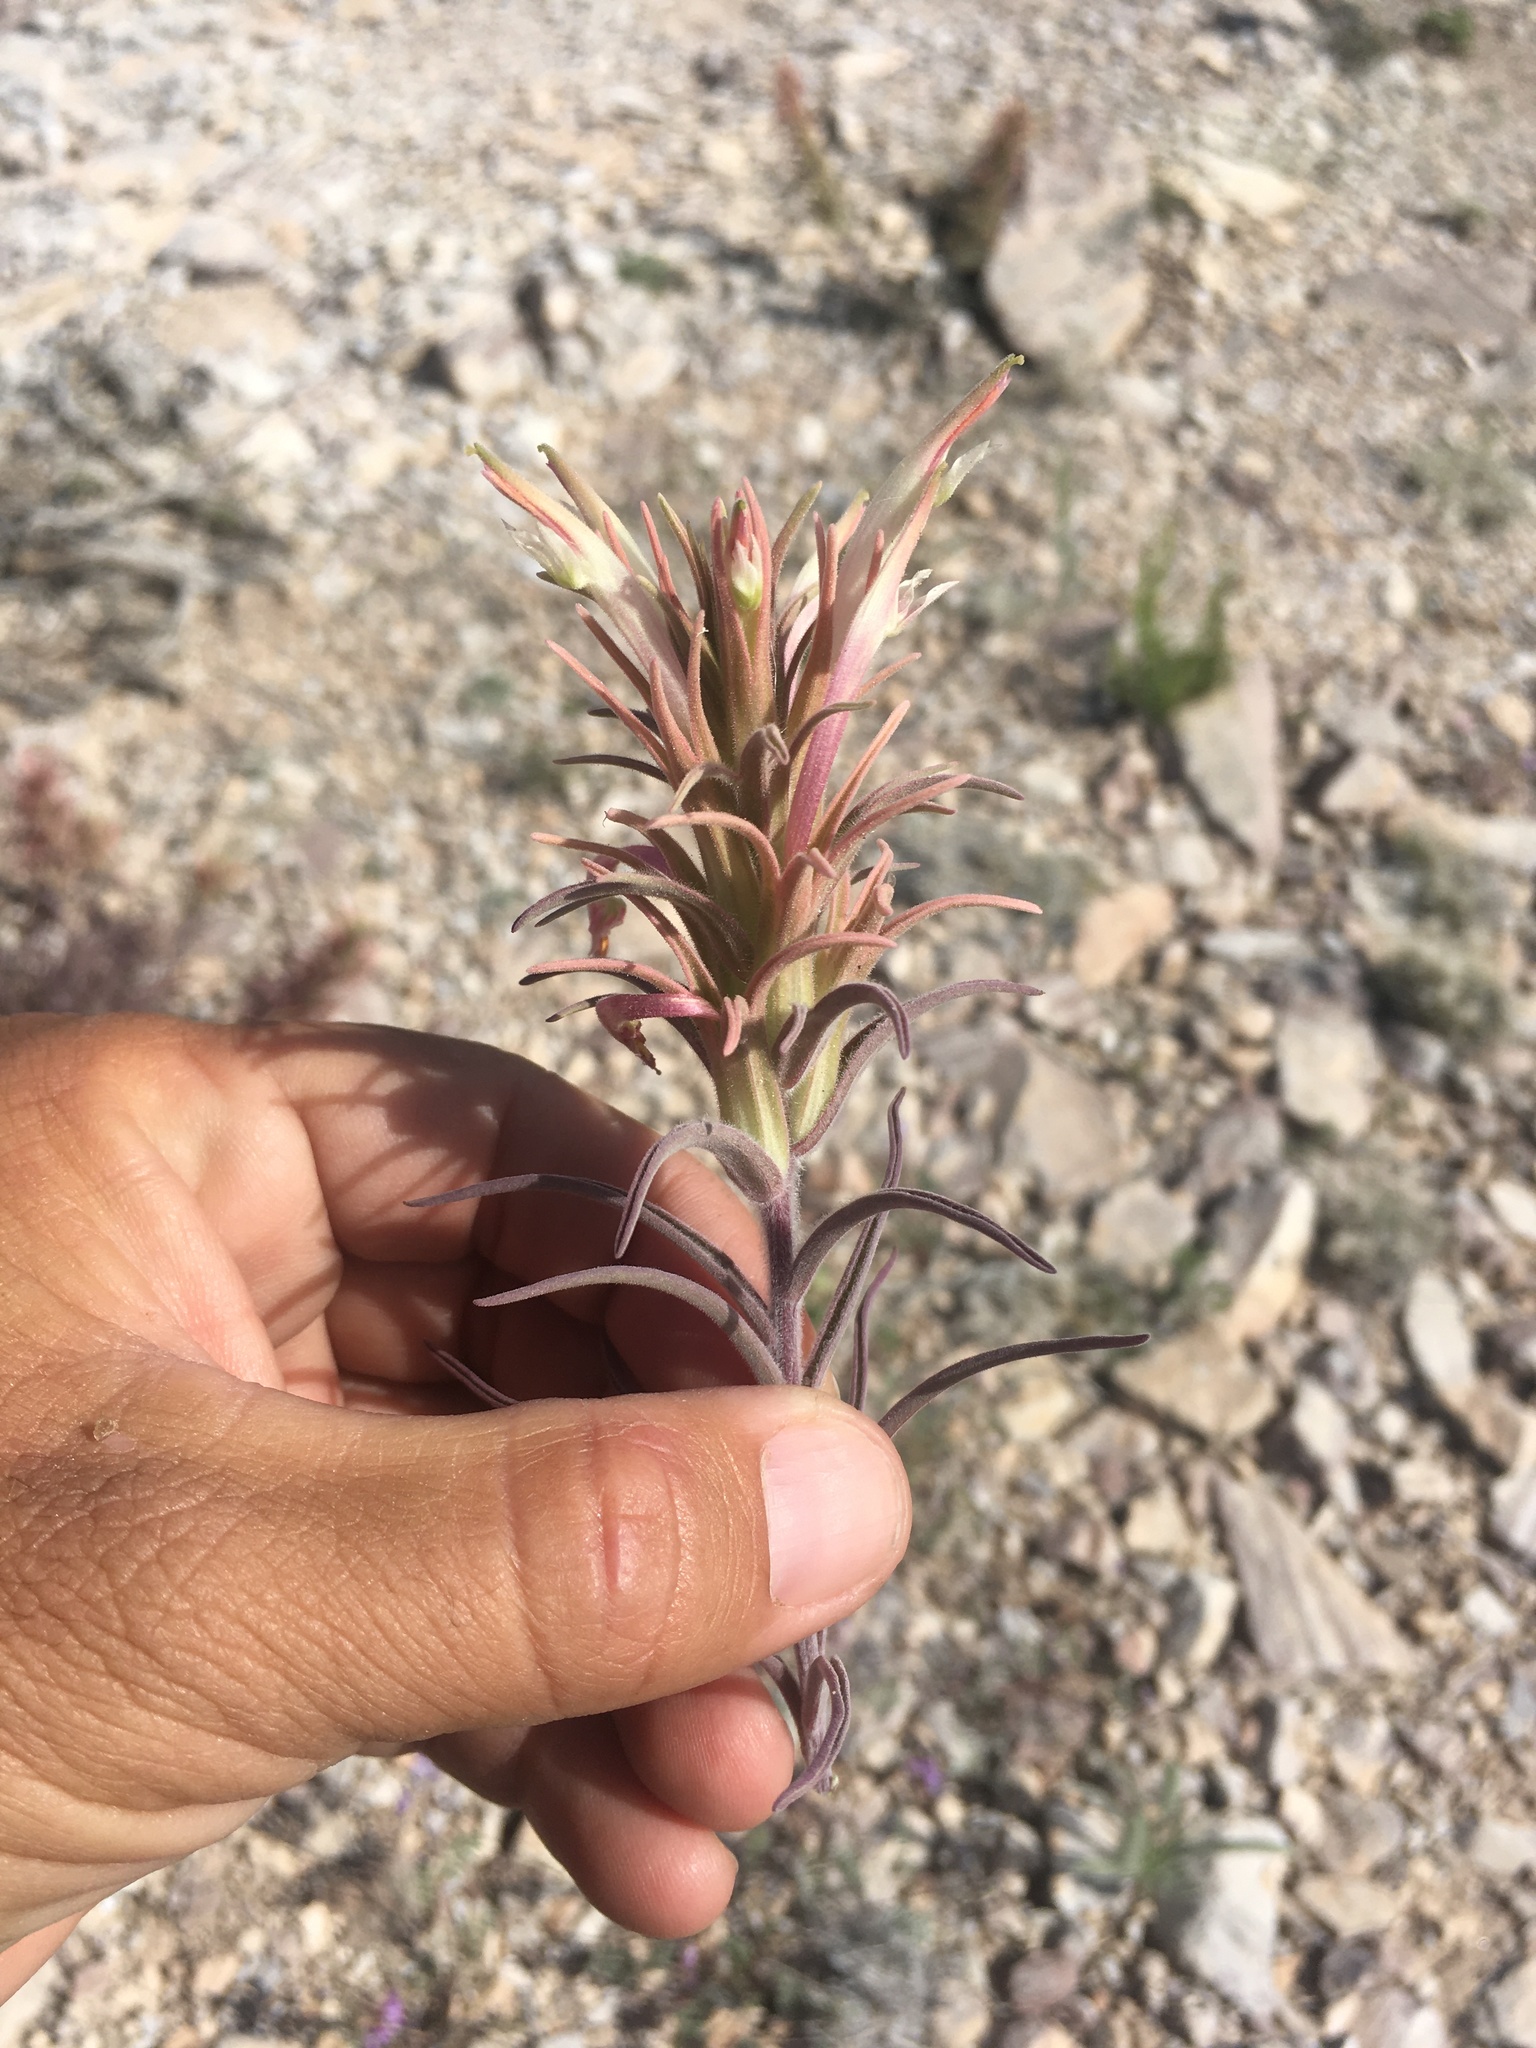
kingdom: Plantae
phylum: Tracheophyta
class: Magnoliopsida
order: Lamiales
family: Orobanchaceae
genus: Castilleja
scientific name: Castilleja sessiliflora
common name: Downy paintbrush
